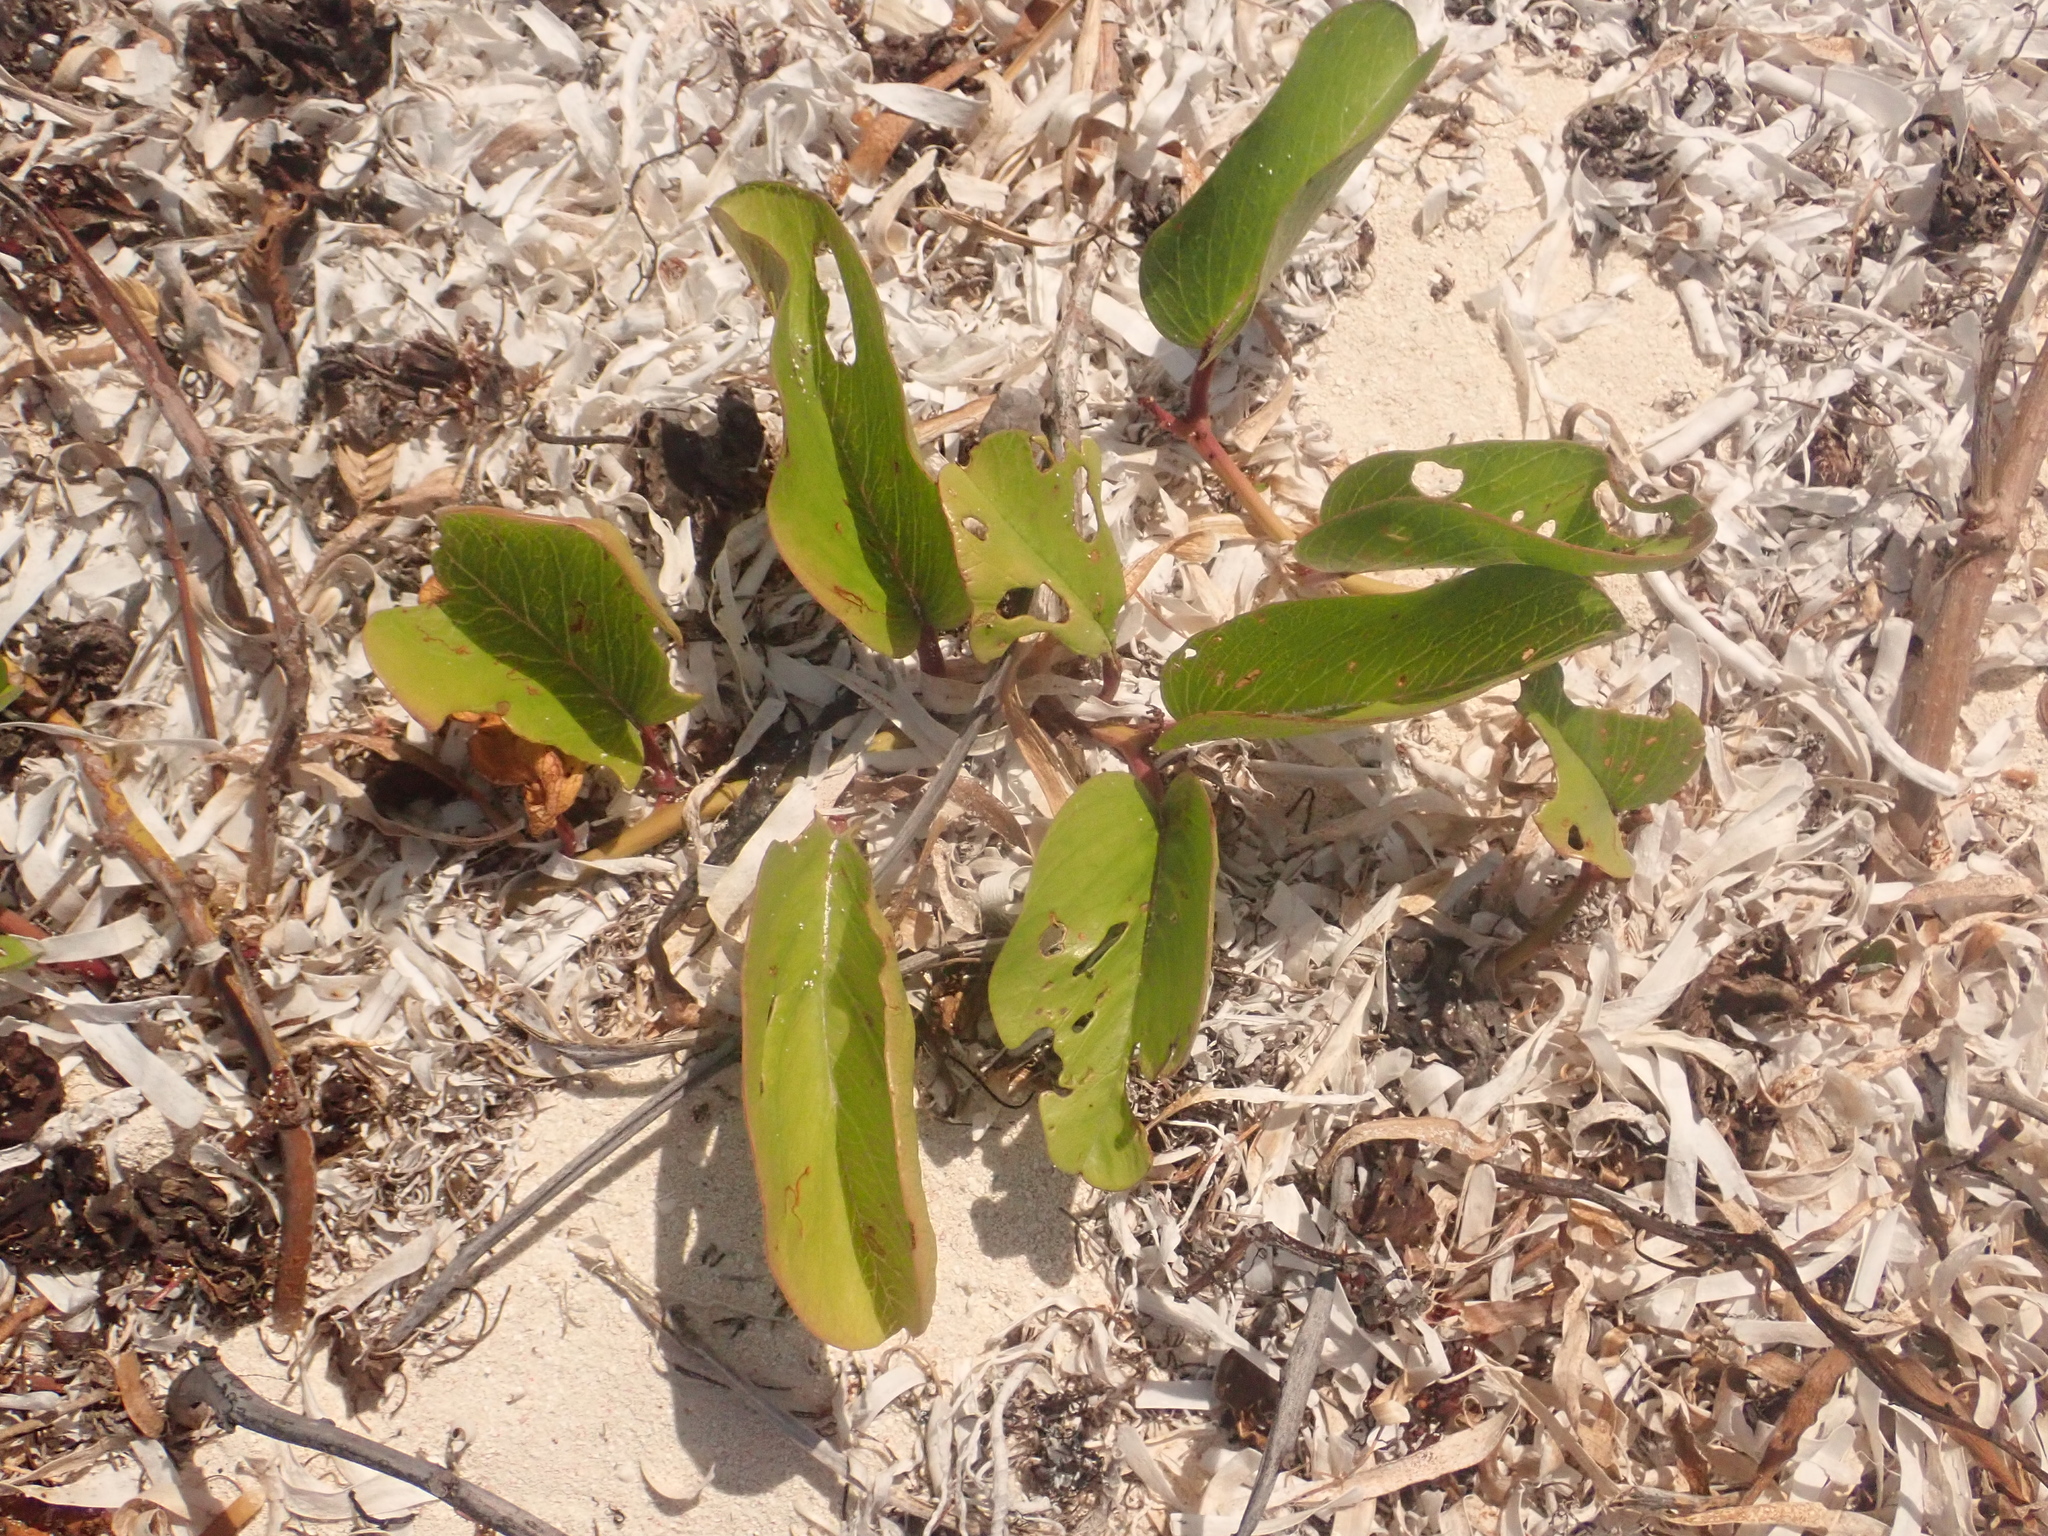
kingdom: Plantae
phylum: Tracheophyta
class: Magnoliopsida
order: Solanales
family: Convolvulaceae
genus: Ipomoea
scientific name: Ipomoea pes-caprae
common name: Beach morning glory
